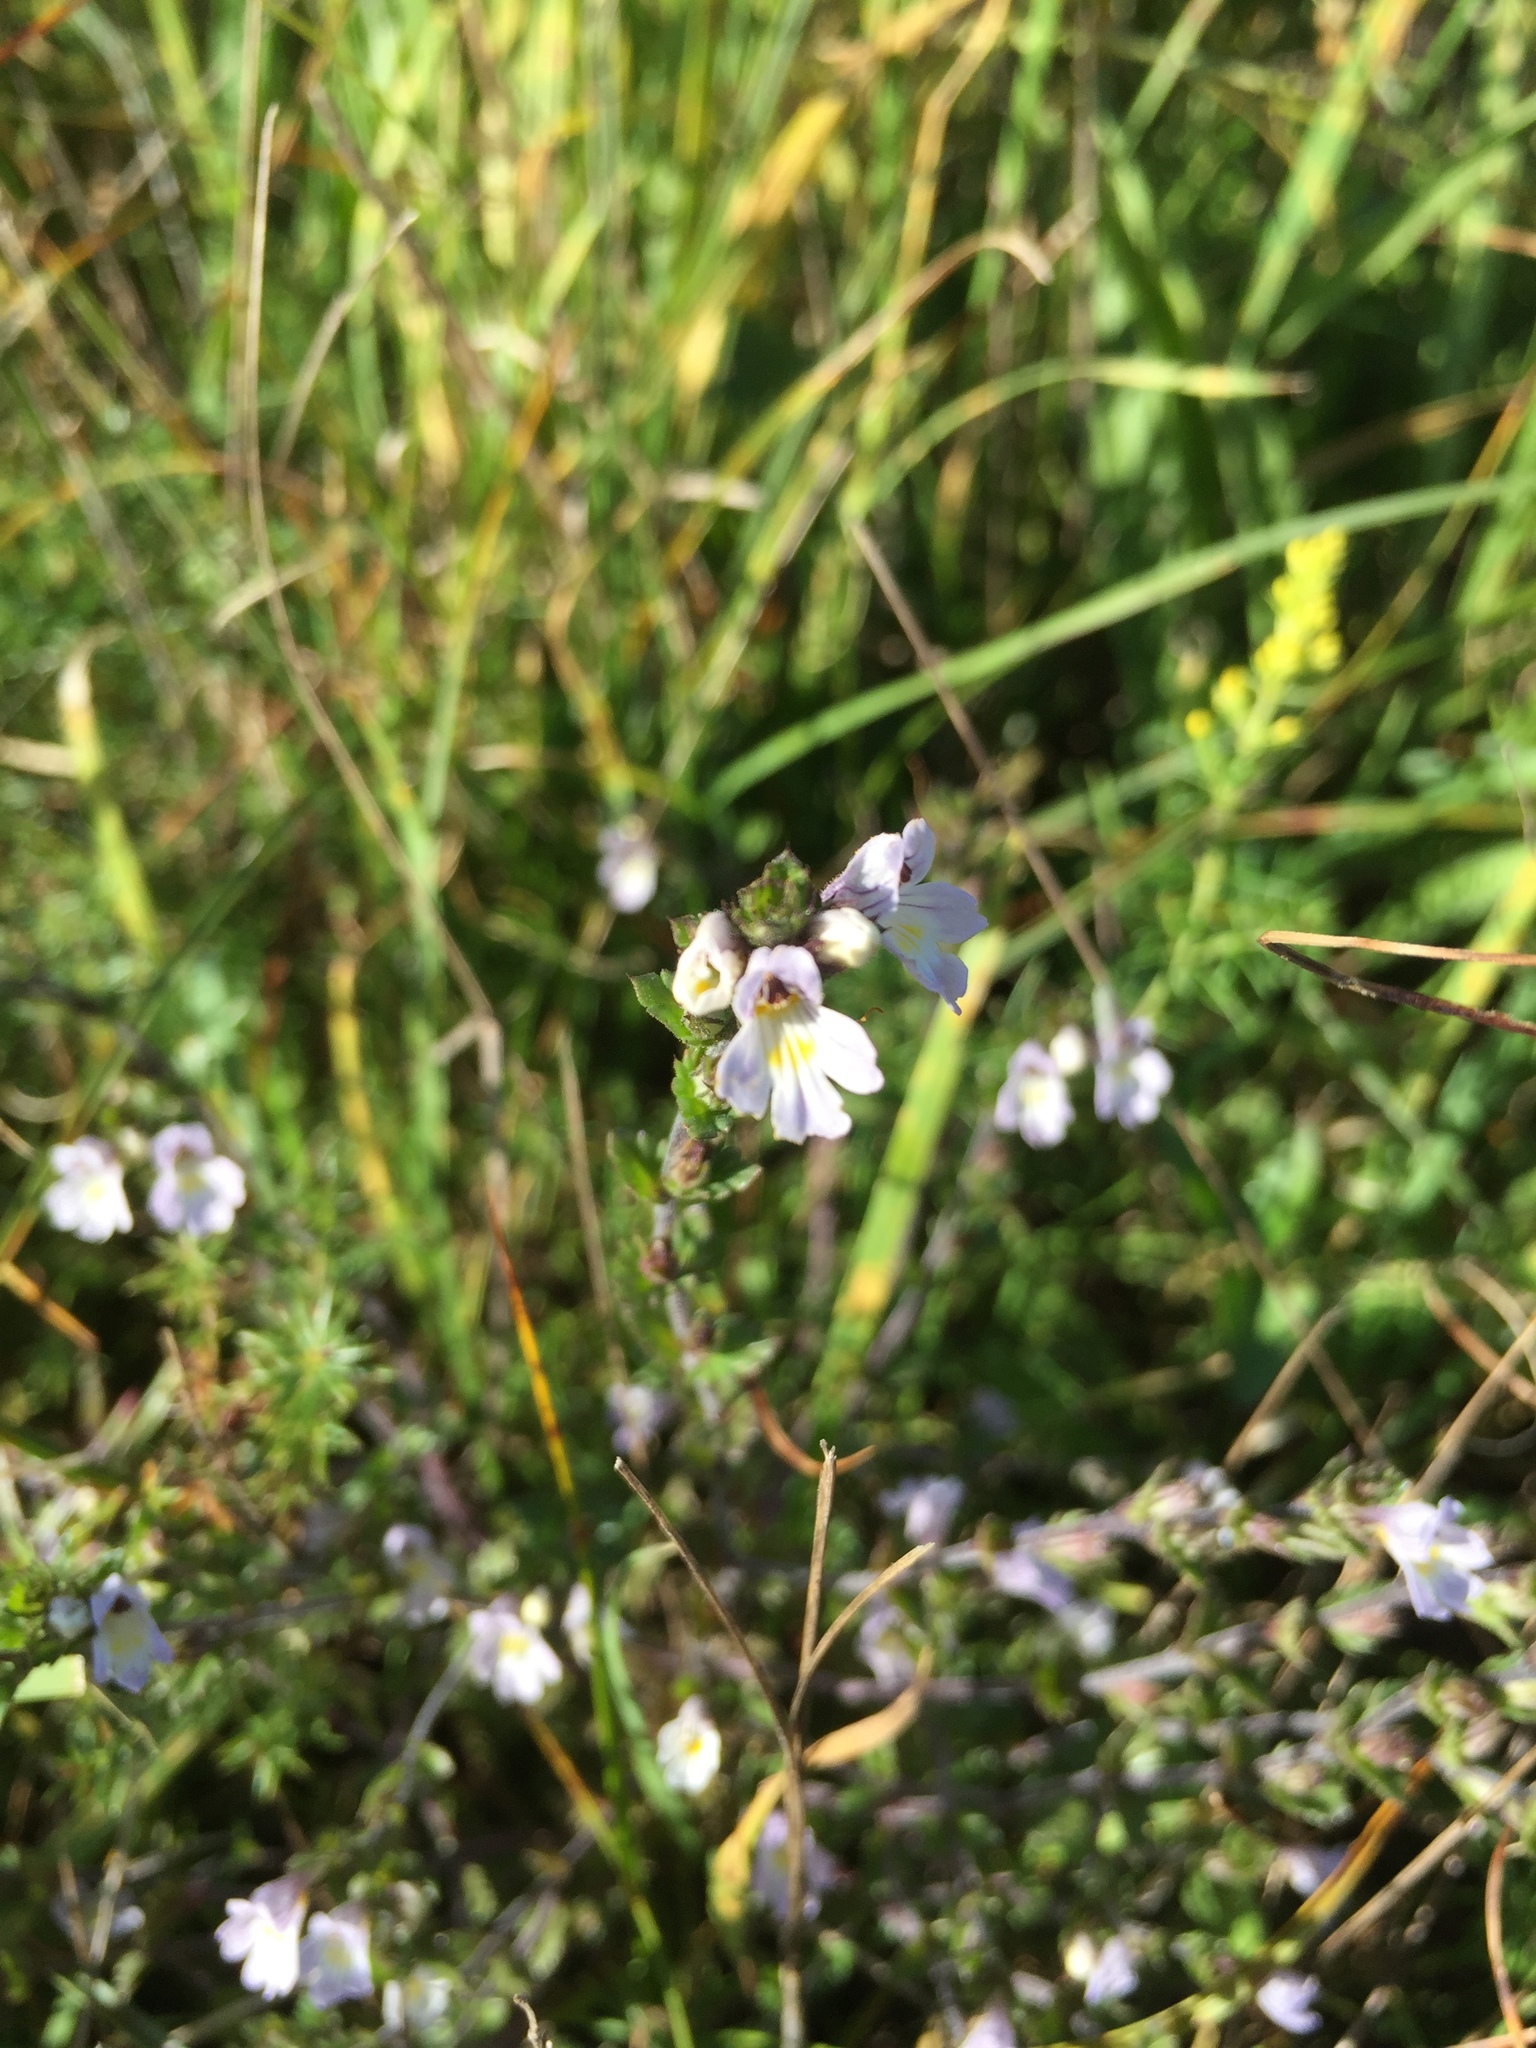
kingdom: Plantae
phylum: Tracheophyta
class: Magnoliopsida
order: Lamiales
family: Orobanchaceae
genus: Euphrasia
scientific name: Euphrasia nemorosa
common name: Common eyebright
